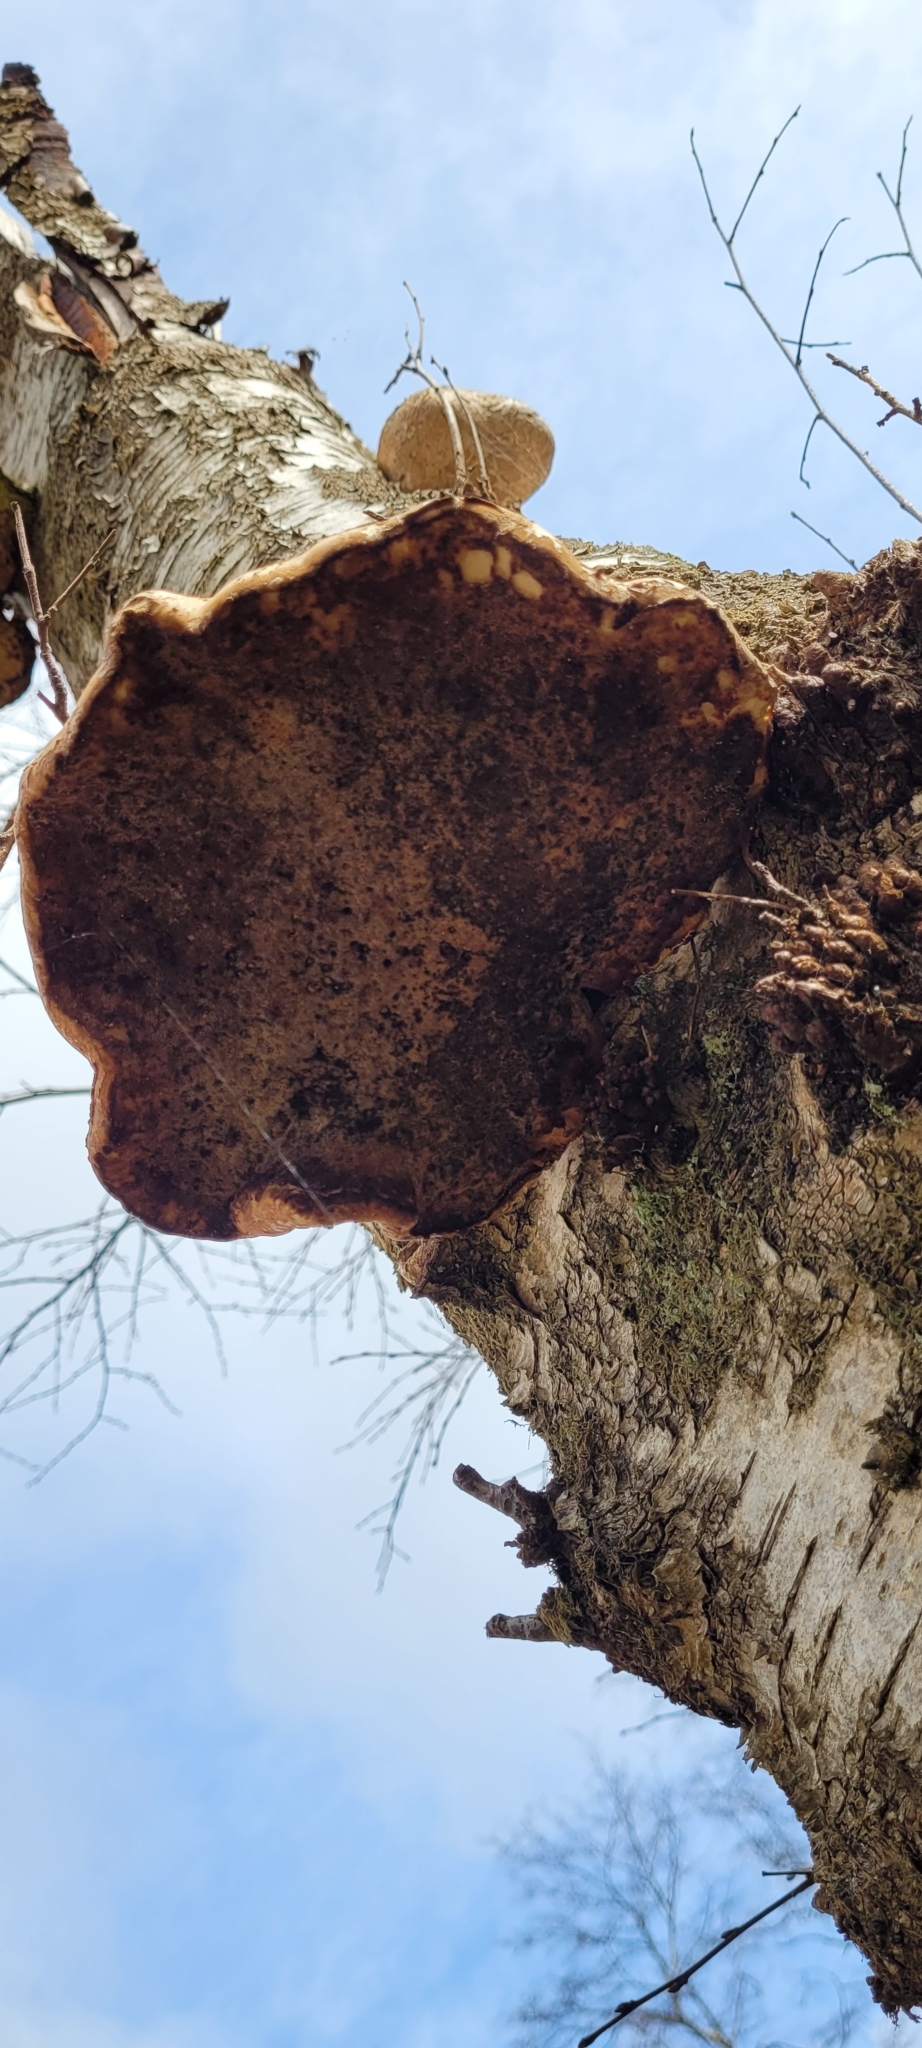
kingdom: Fungi
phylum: Basidiomycota
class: Agaricomycetes
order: Polyporales
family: Fomitopsidaceae
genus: Fomitopsis
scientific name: Fomitopsis betulina
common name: Birch polypore
